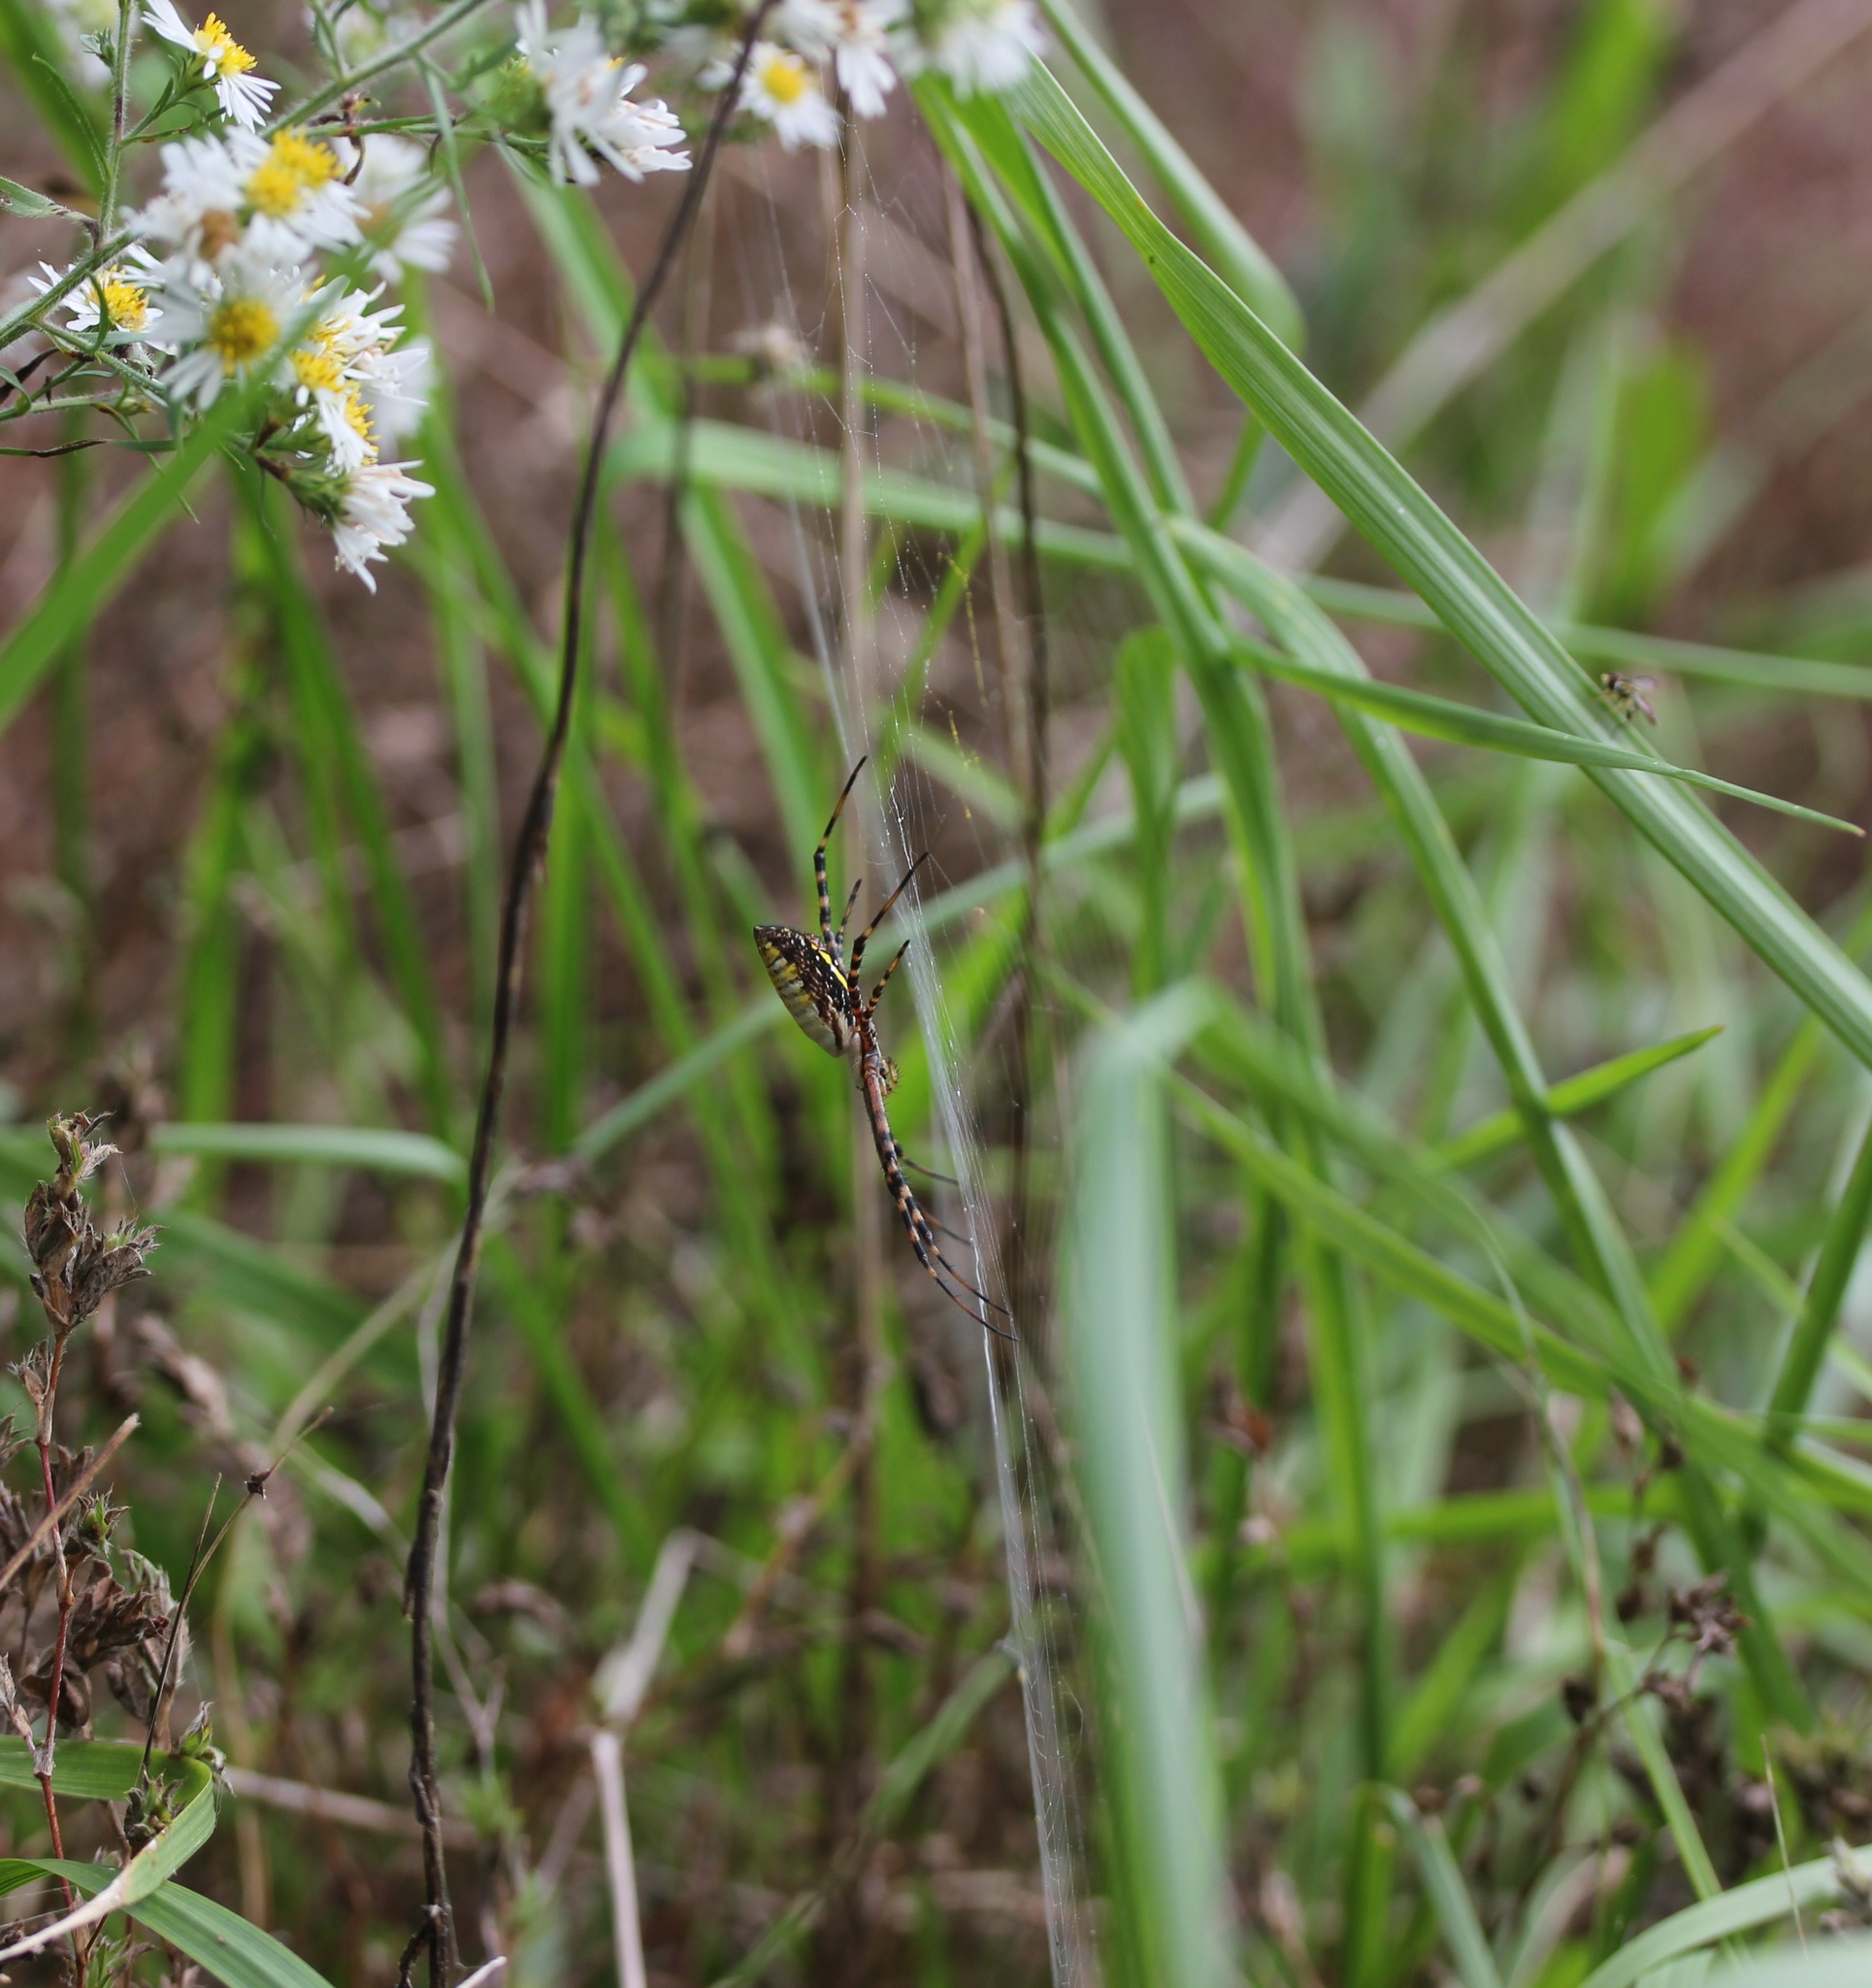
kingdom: Animalia
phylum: Arthropoda
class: Arachnida
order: Araneae
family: Araneidae
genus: Argiope
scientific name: Argiope trifasciata
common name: Banded garden spider
